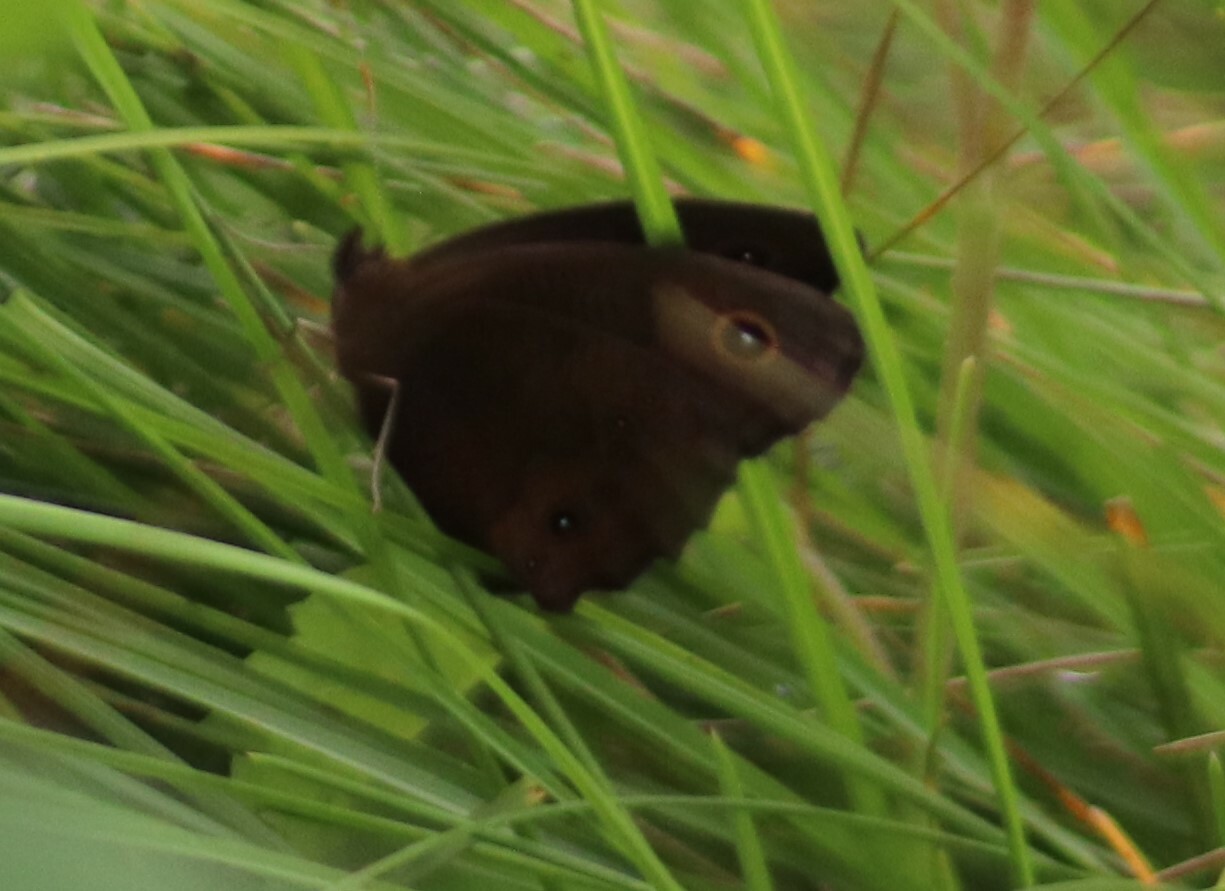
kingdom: Animalia
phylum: Arthropoda
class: Insecta
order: Lepidoptera
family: Nymphalidae
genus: Cercyonis
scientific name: Cercyonis pegala
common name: Common wood-nymph
